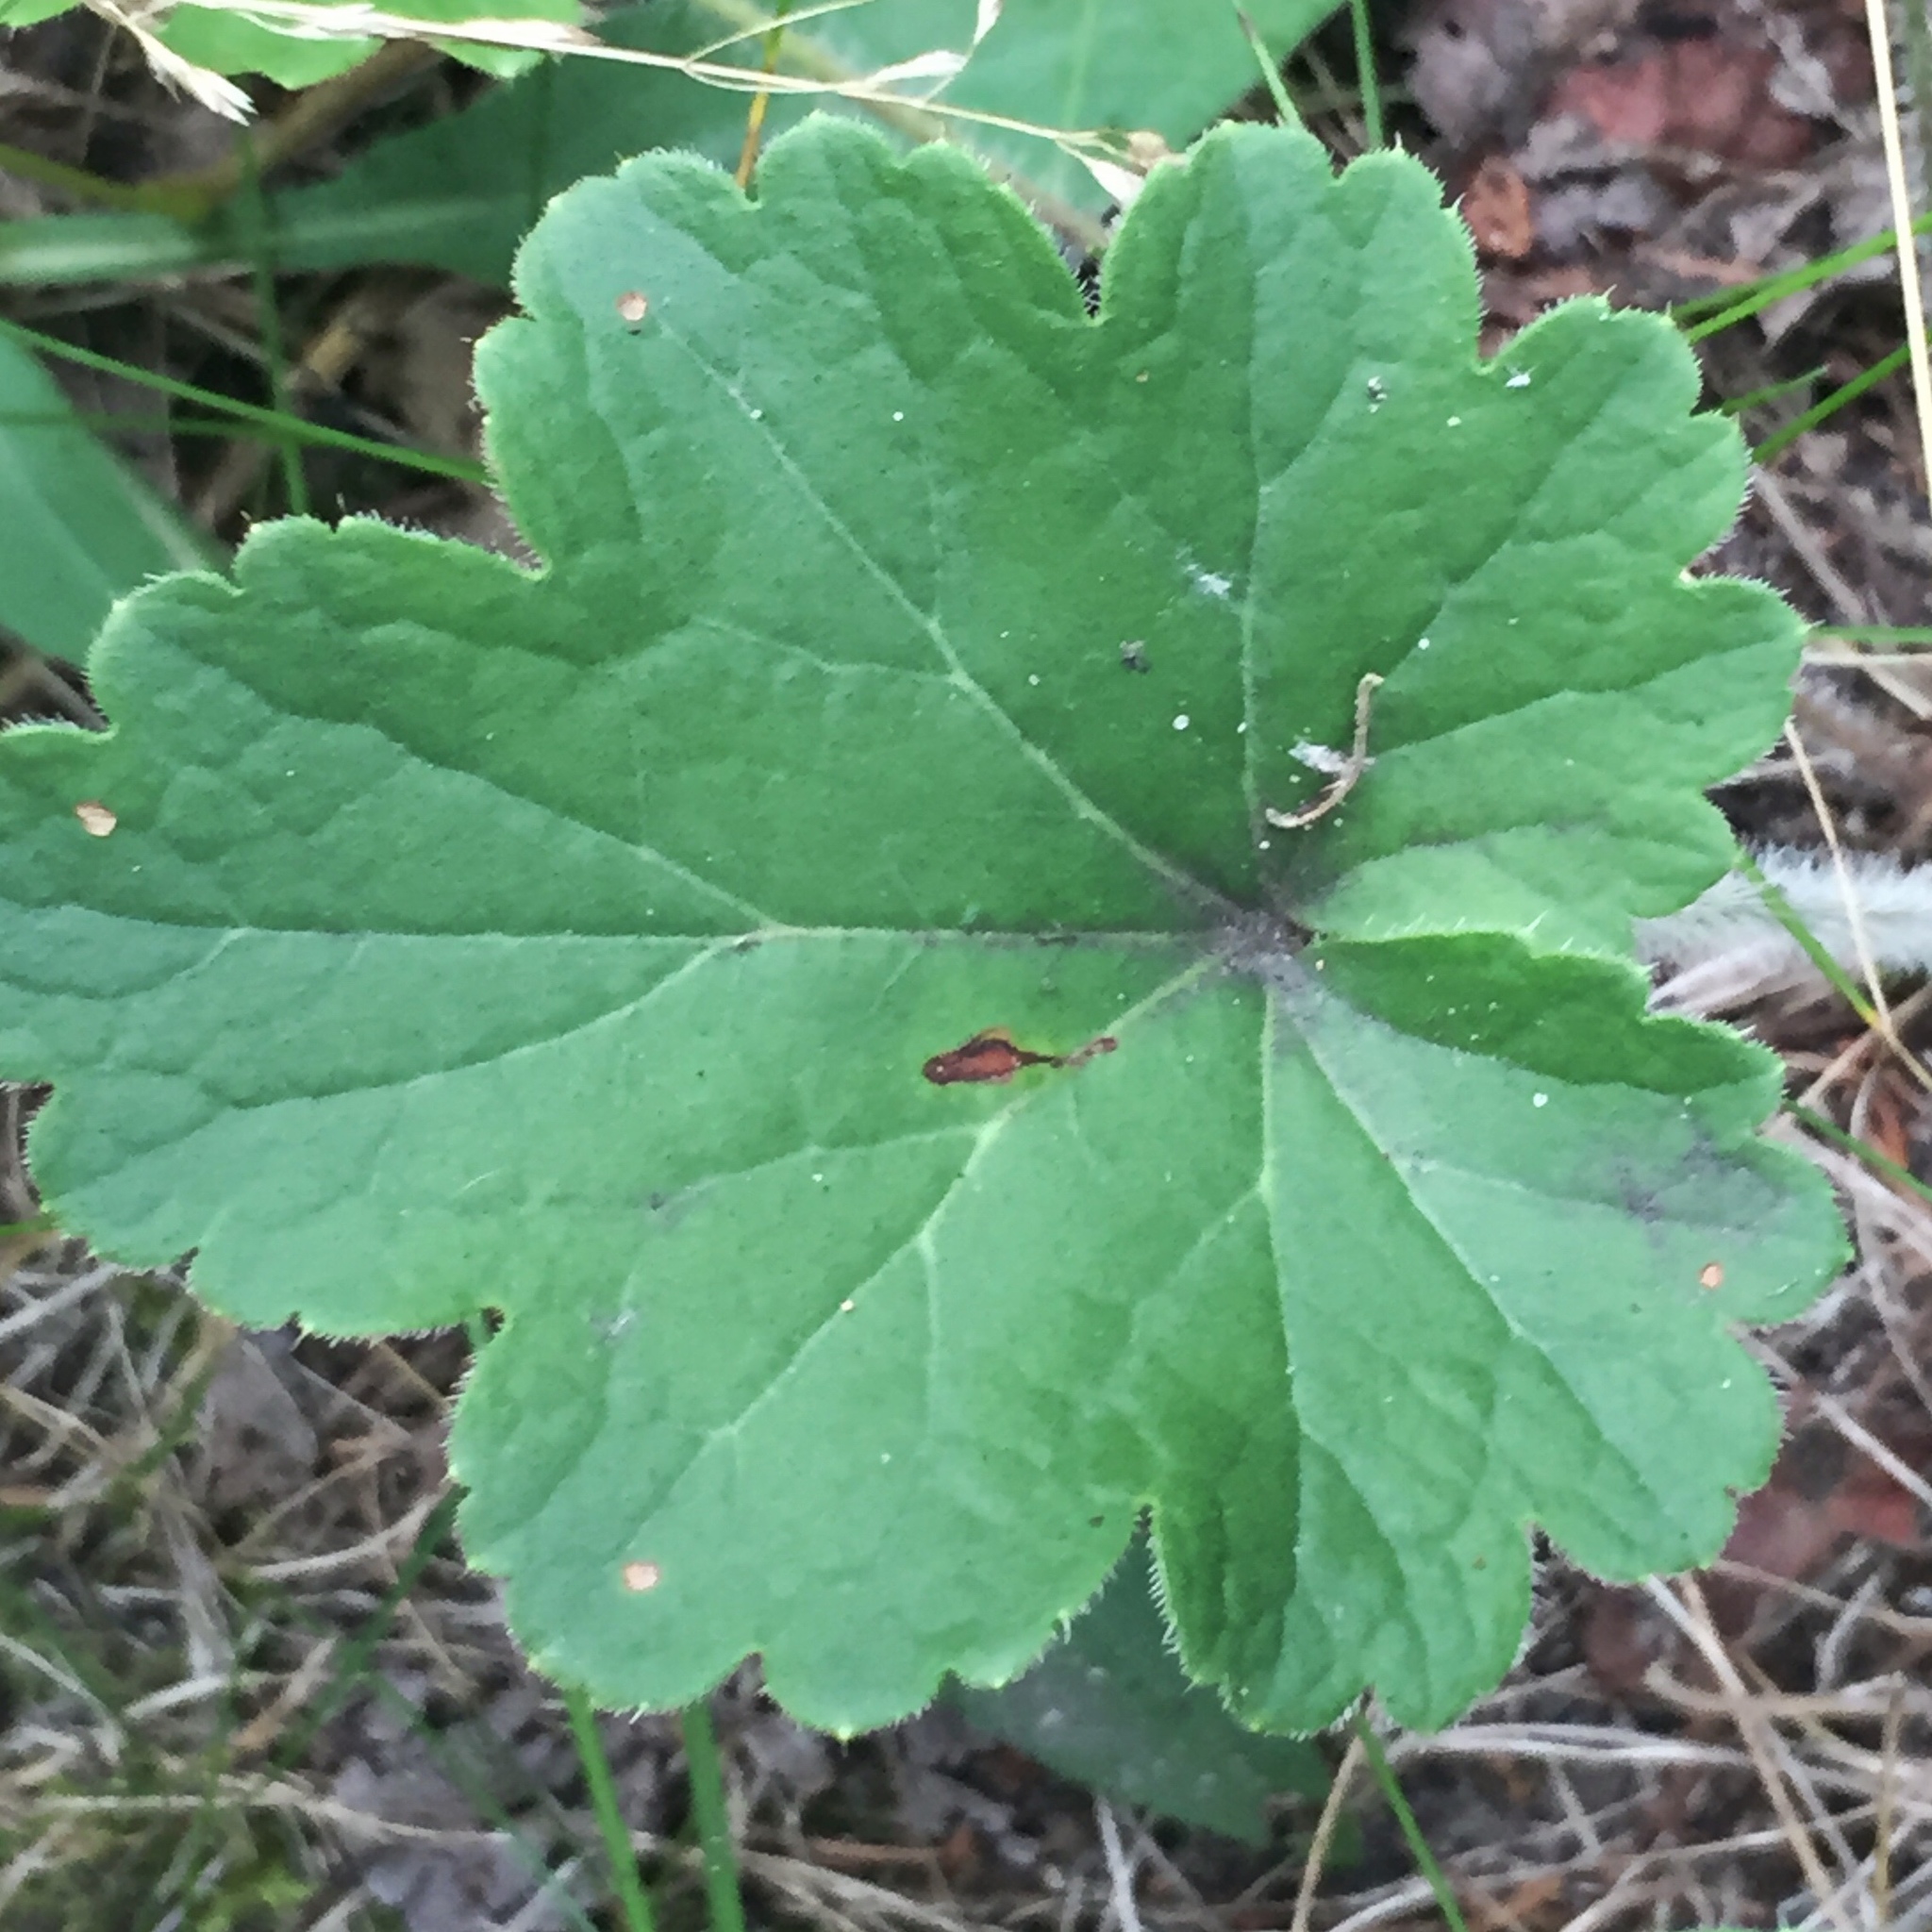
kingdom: Plantae
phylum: Tracheophyta
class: Magnoliopsida
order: Saxifragales
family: Saxifragaceae
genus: Heuchera
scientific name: Heuchera richardsonii
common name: Richardson's alumroot
